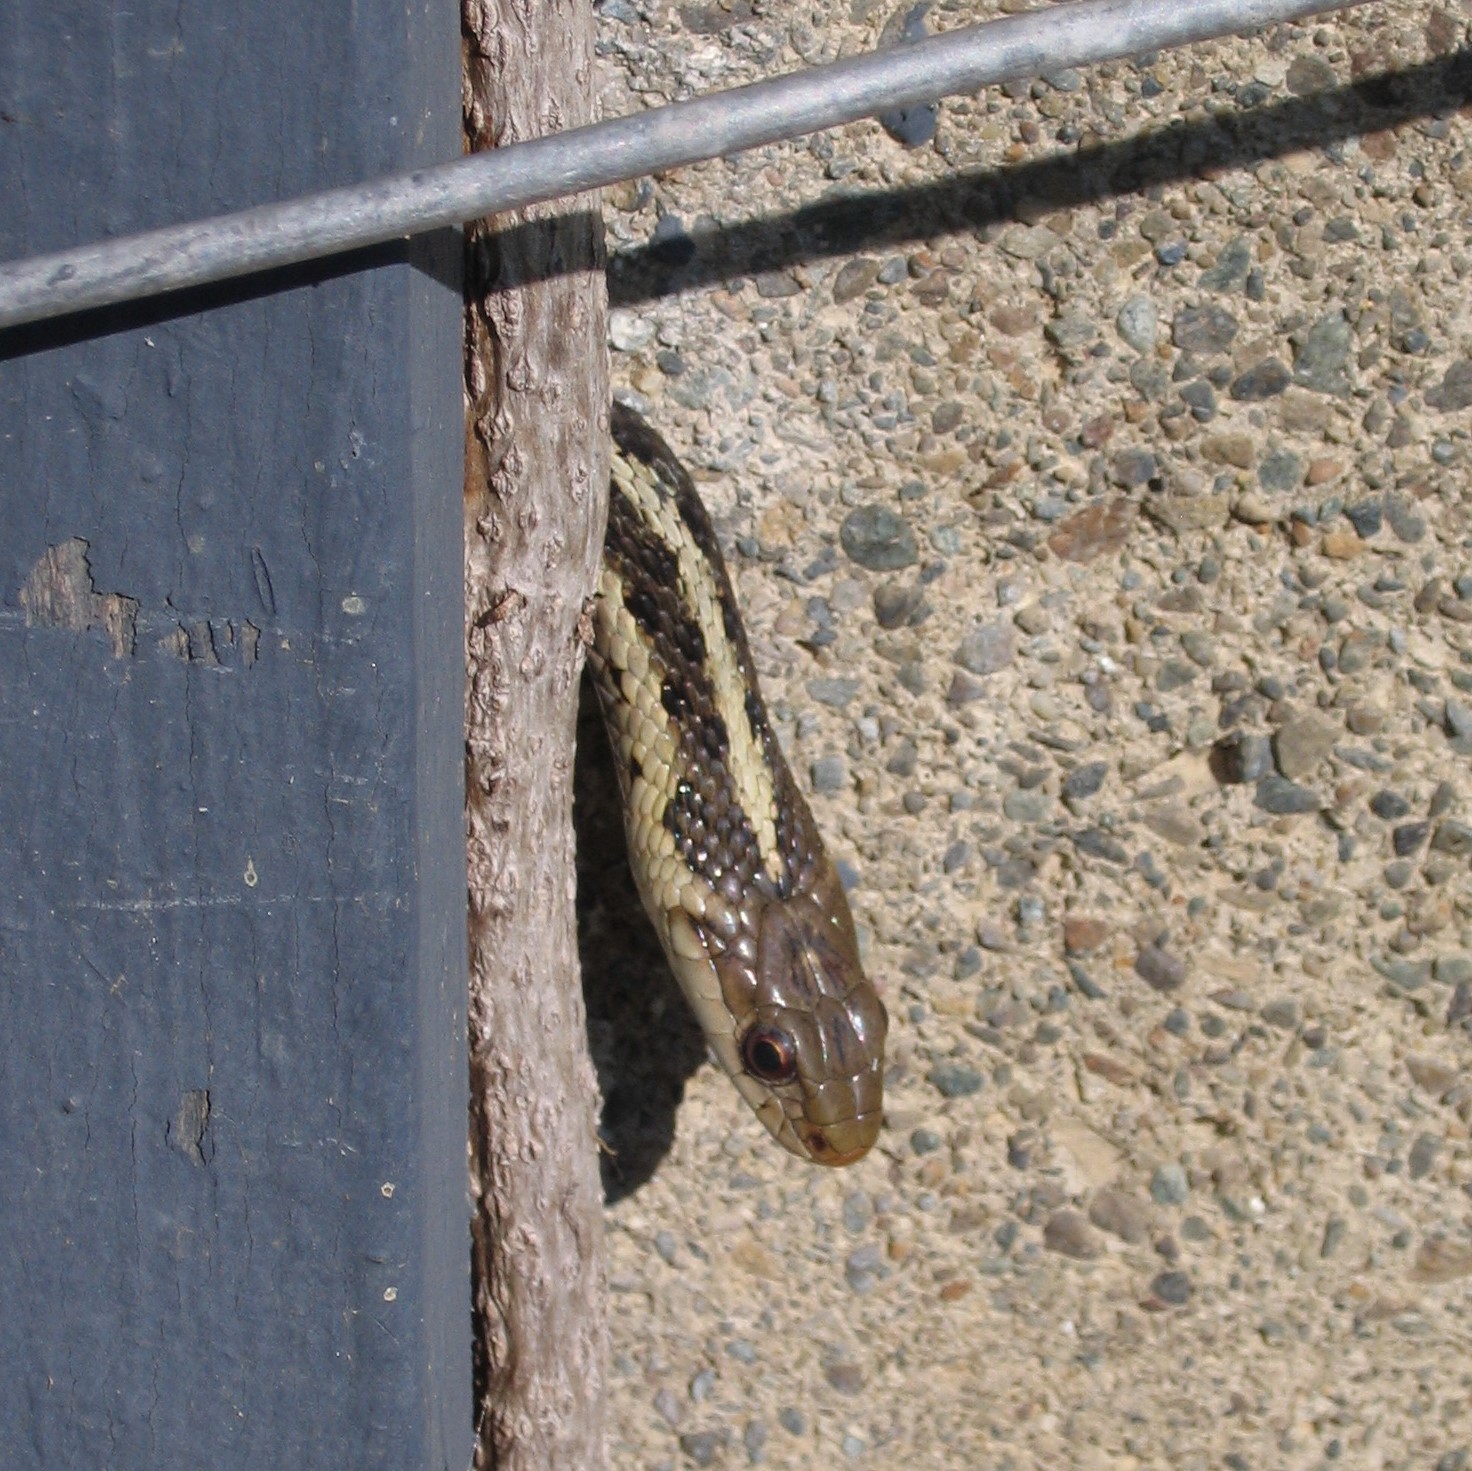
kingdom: Animalia
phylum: Chordata
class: Squamata
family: Colubridae
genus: Thamnophis
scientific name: Thamnophis sirtalis
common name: Common garter snake
